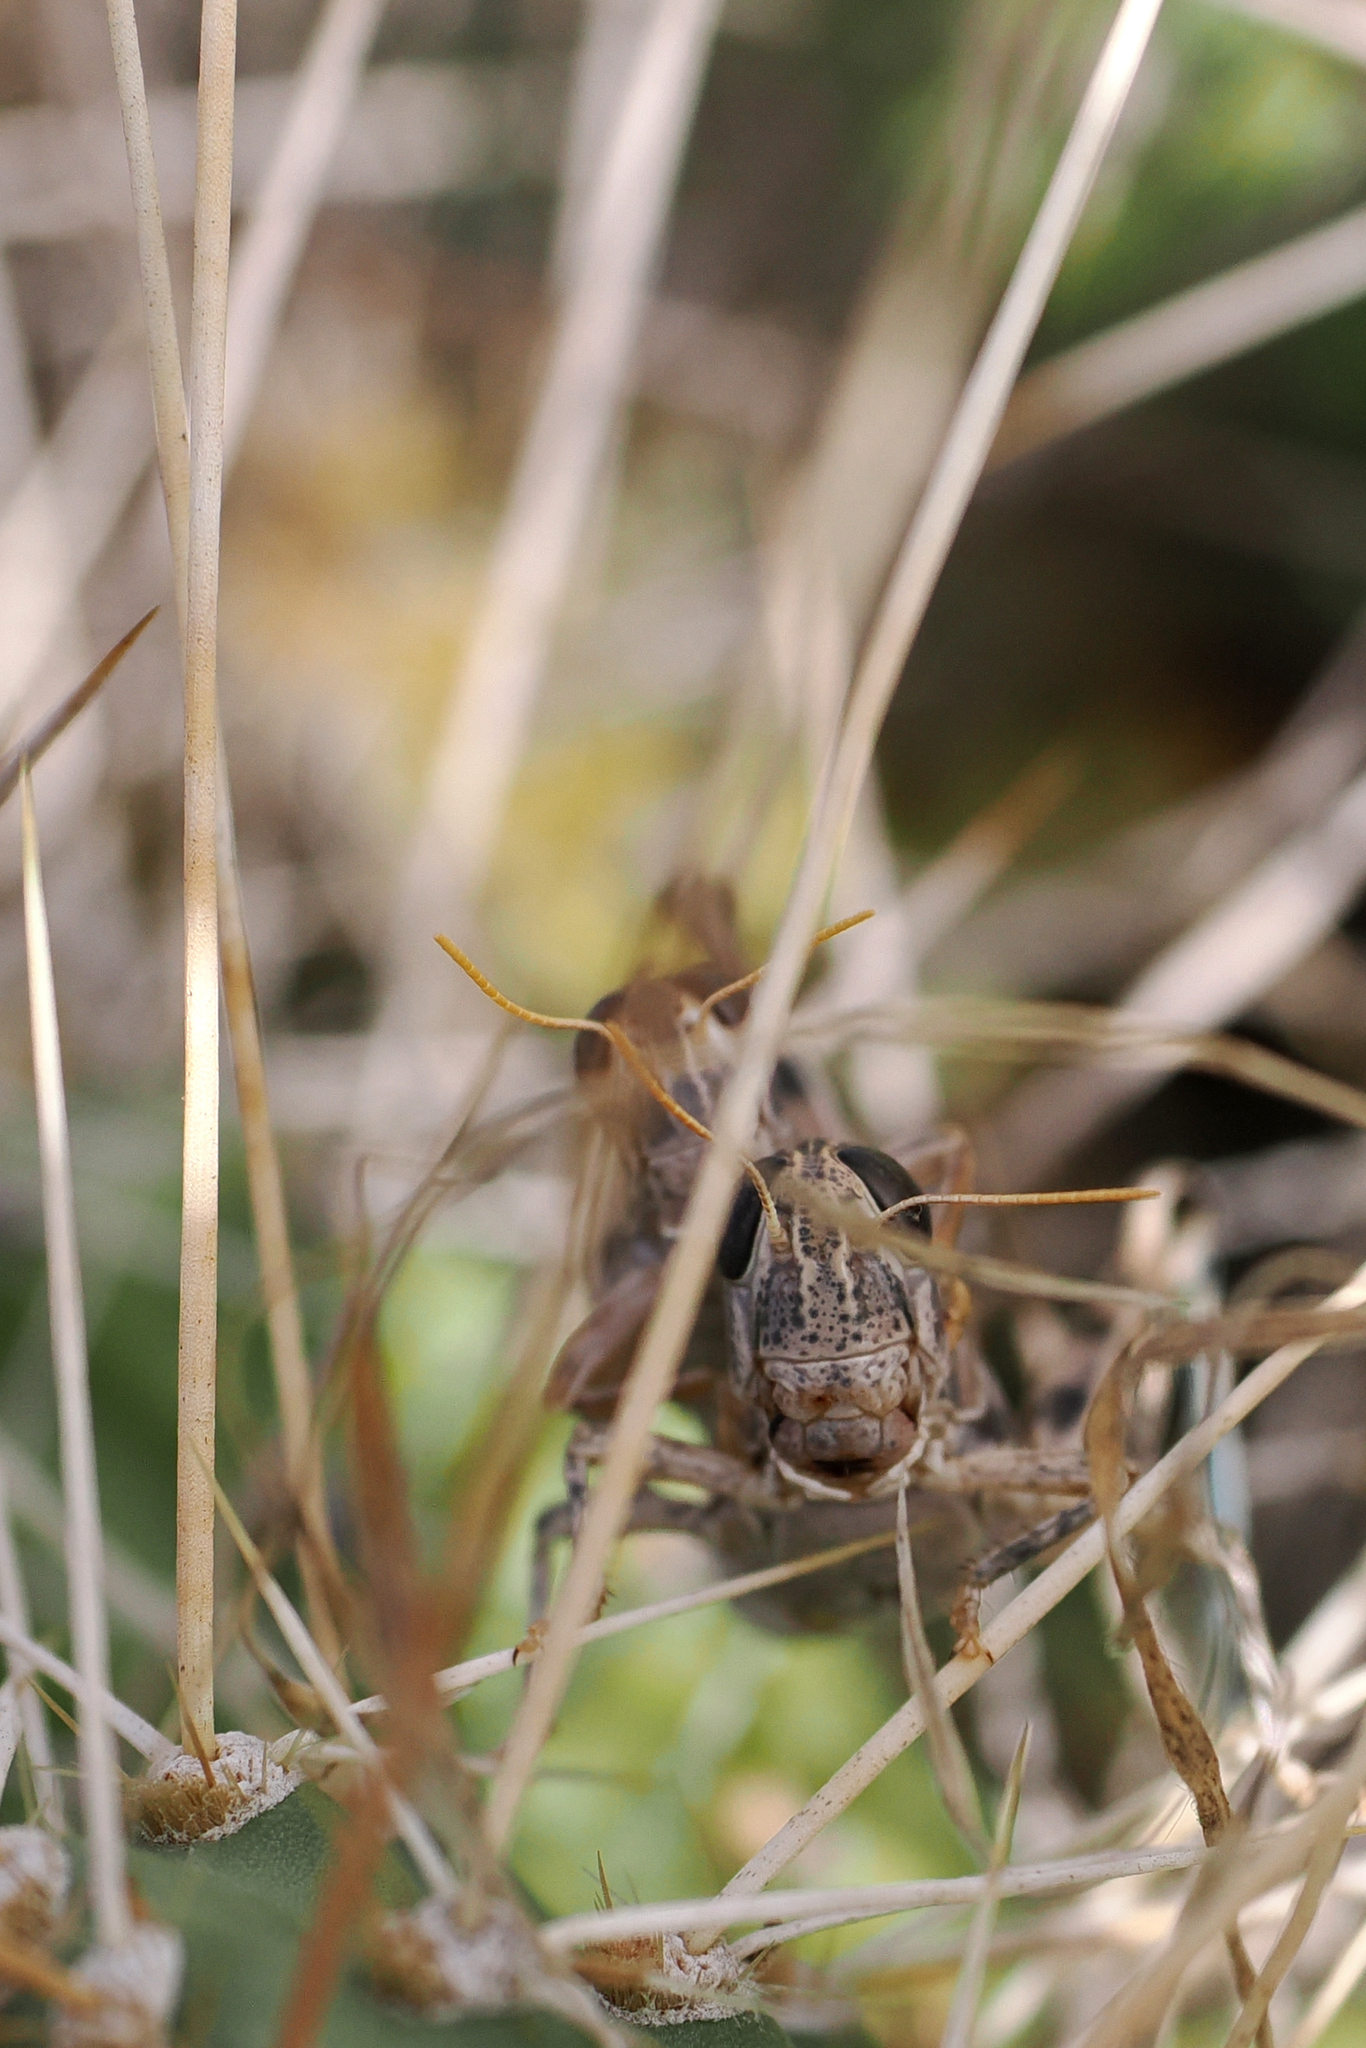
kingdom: Animalia
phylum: Arthropoda
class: Insecta
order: Orthoptera
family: Acrididae
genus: Oedaleonotus
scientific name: Oedaleonotus enigma
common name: Valley grasshopper
